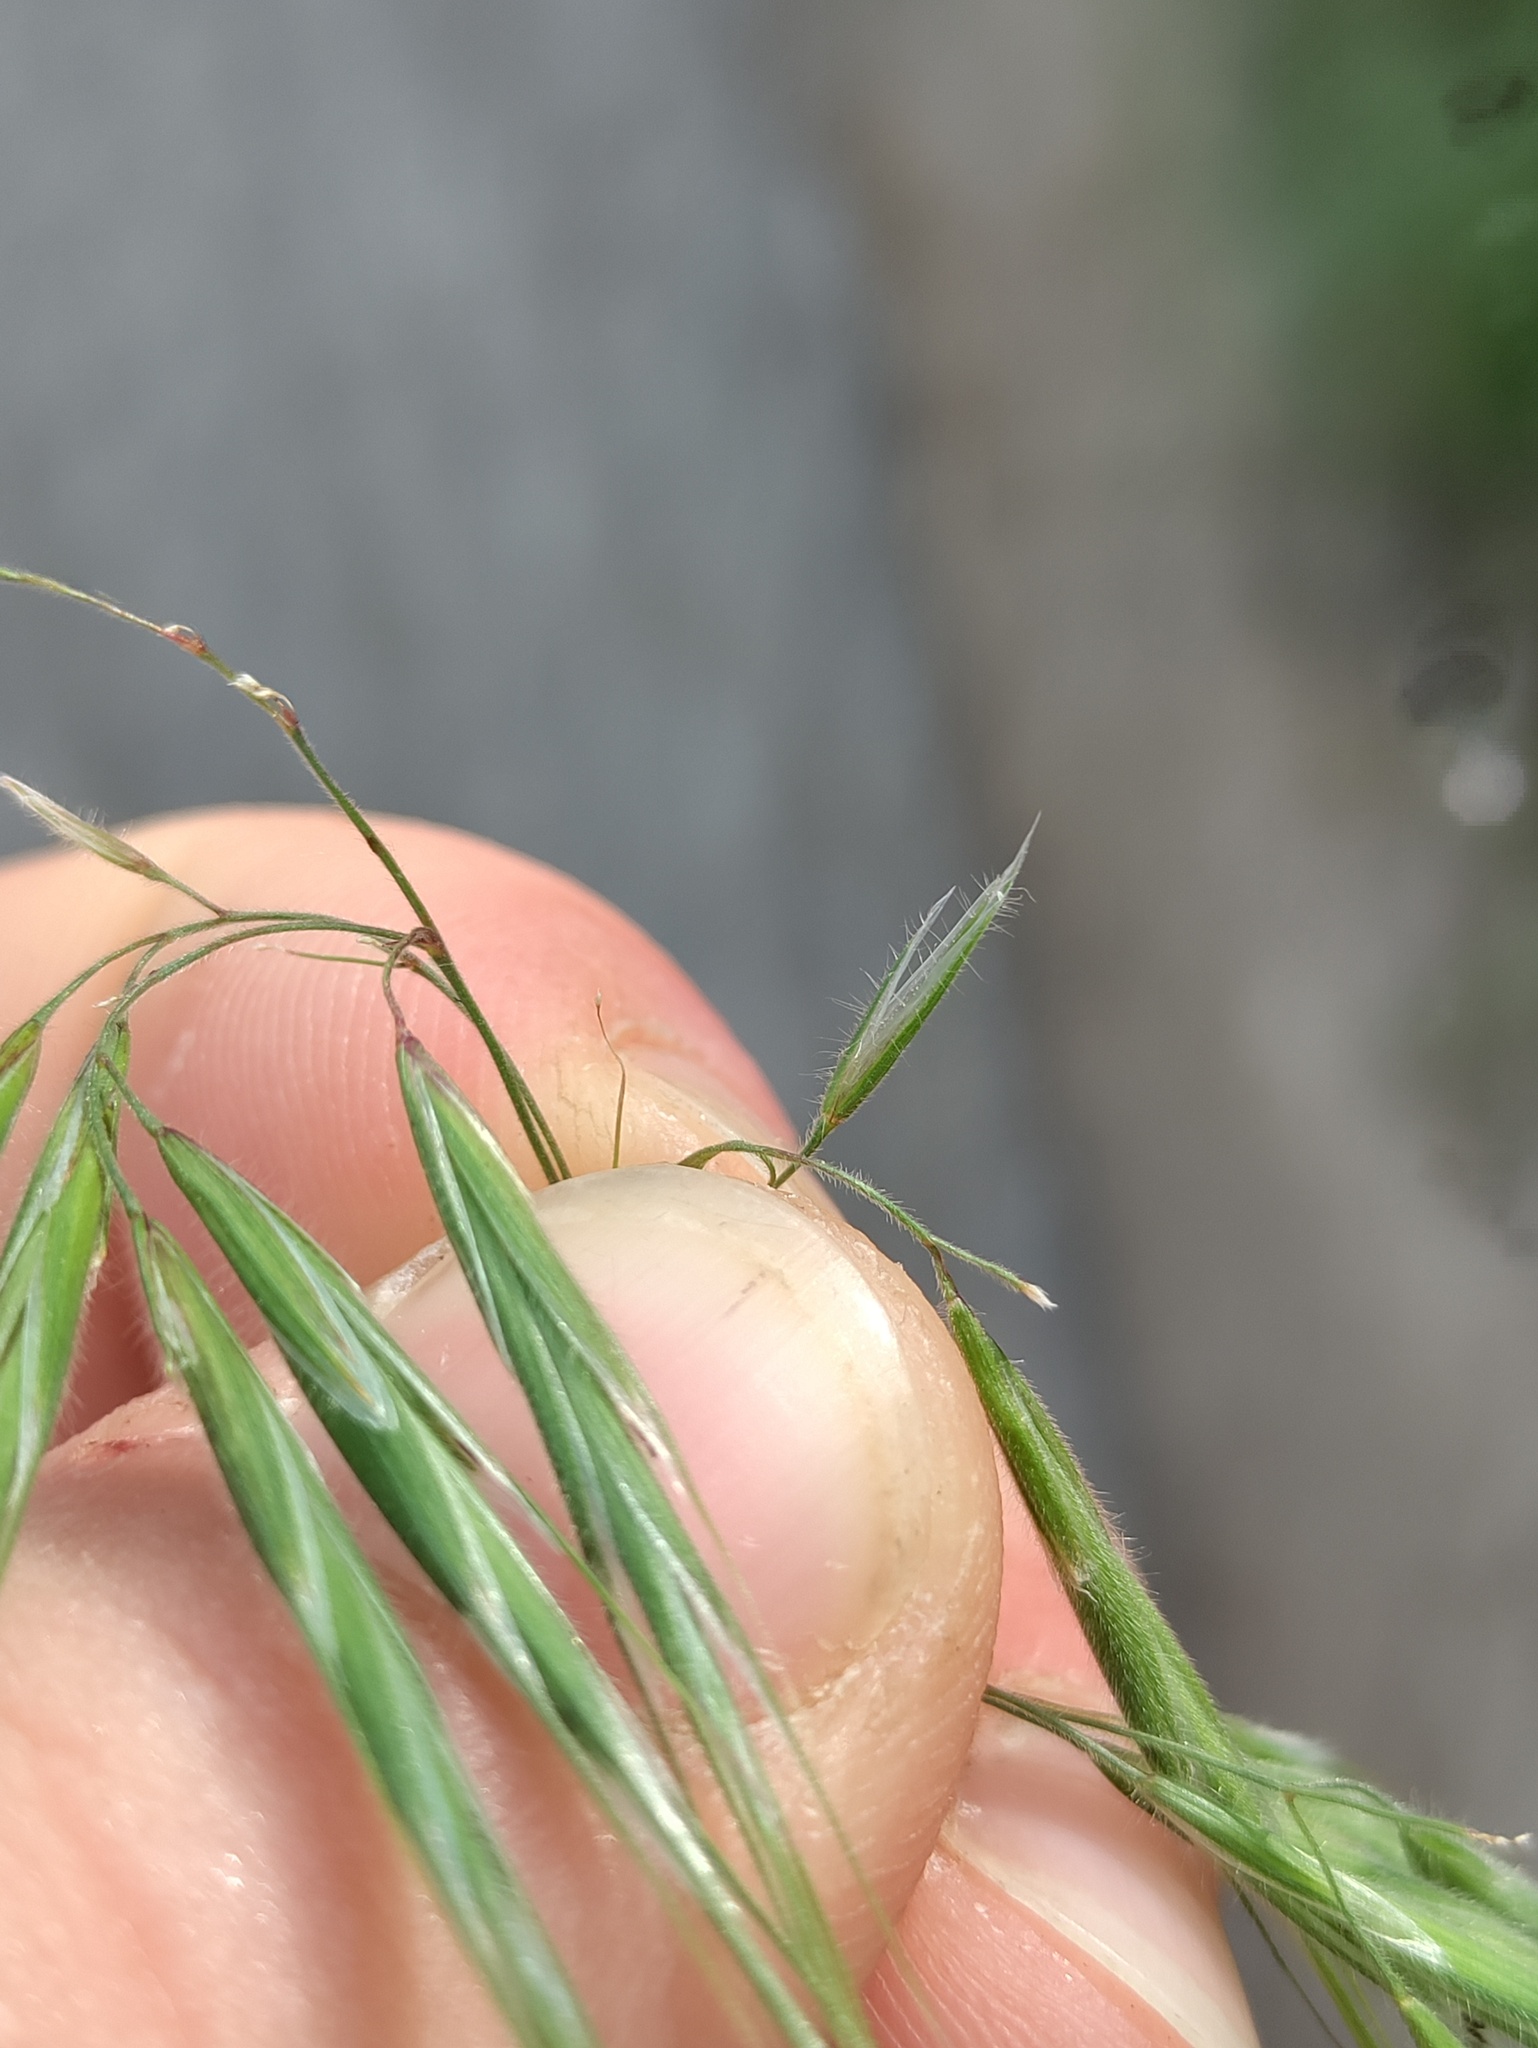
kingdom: Plantae
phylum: Tracheophyta
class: Liliopsida
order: Poales
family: Poaceae
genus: Bromus
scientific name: Bromus tectorum
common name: Cheatgrass
